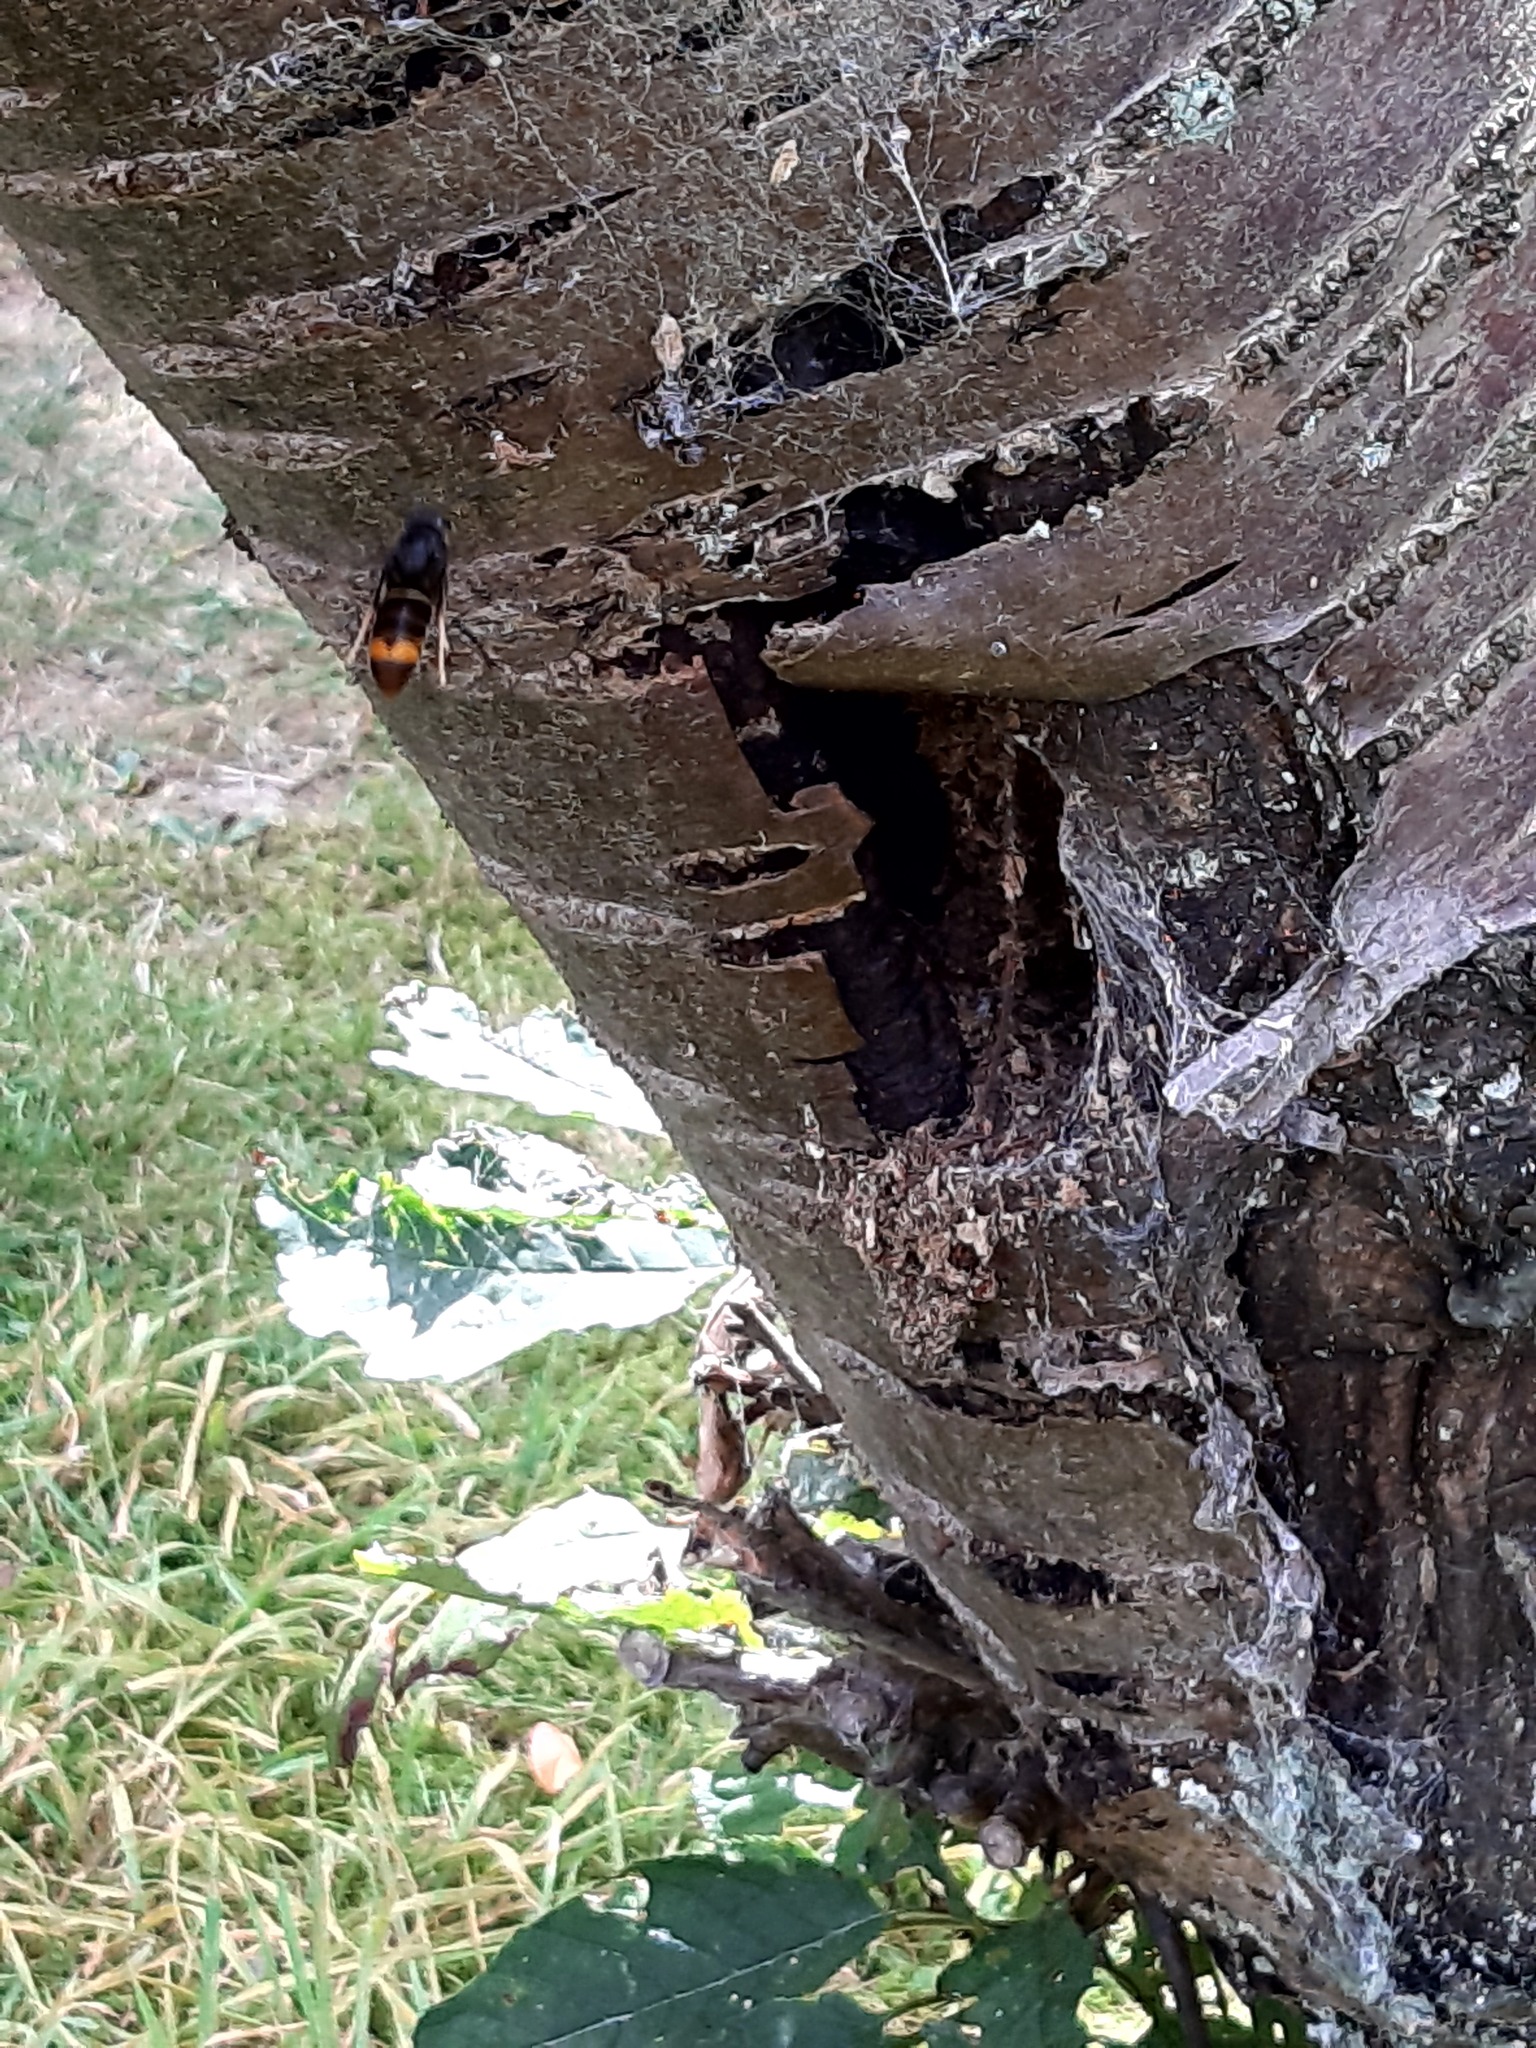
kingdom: Animalia
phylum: Arthropoda
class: Insecta
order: Hymenoptera
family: Vespidae
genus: Vespa
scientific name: Vespa velutina
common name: Asian hornet
